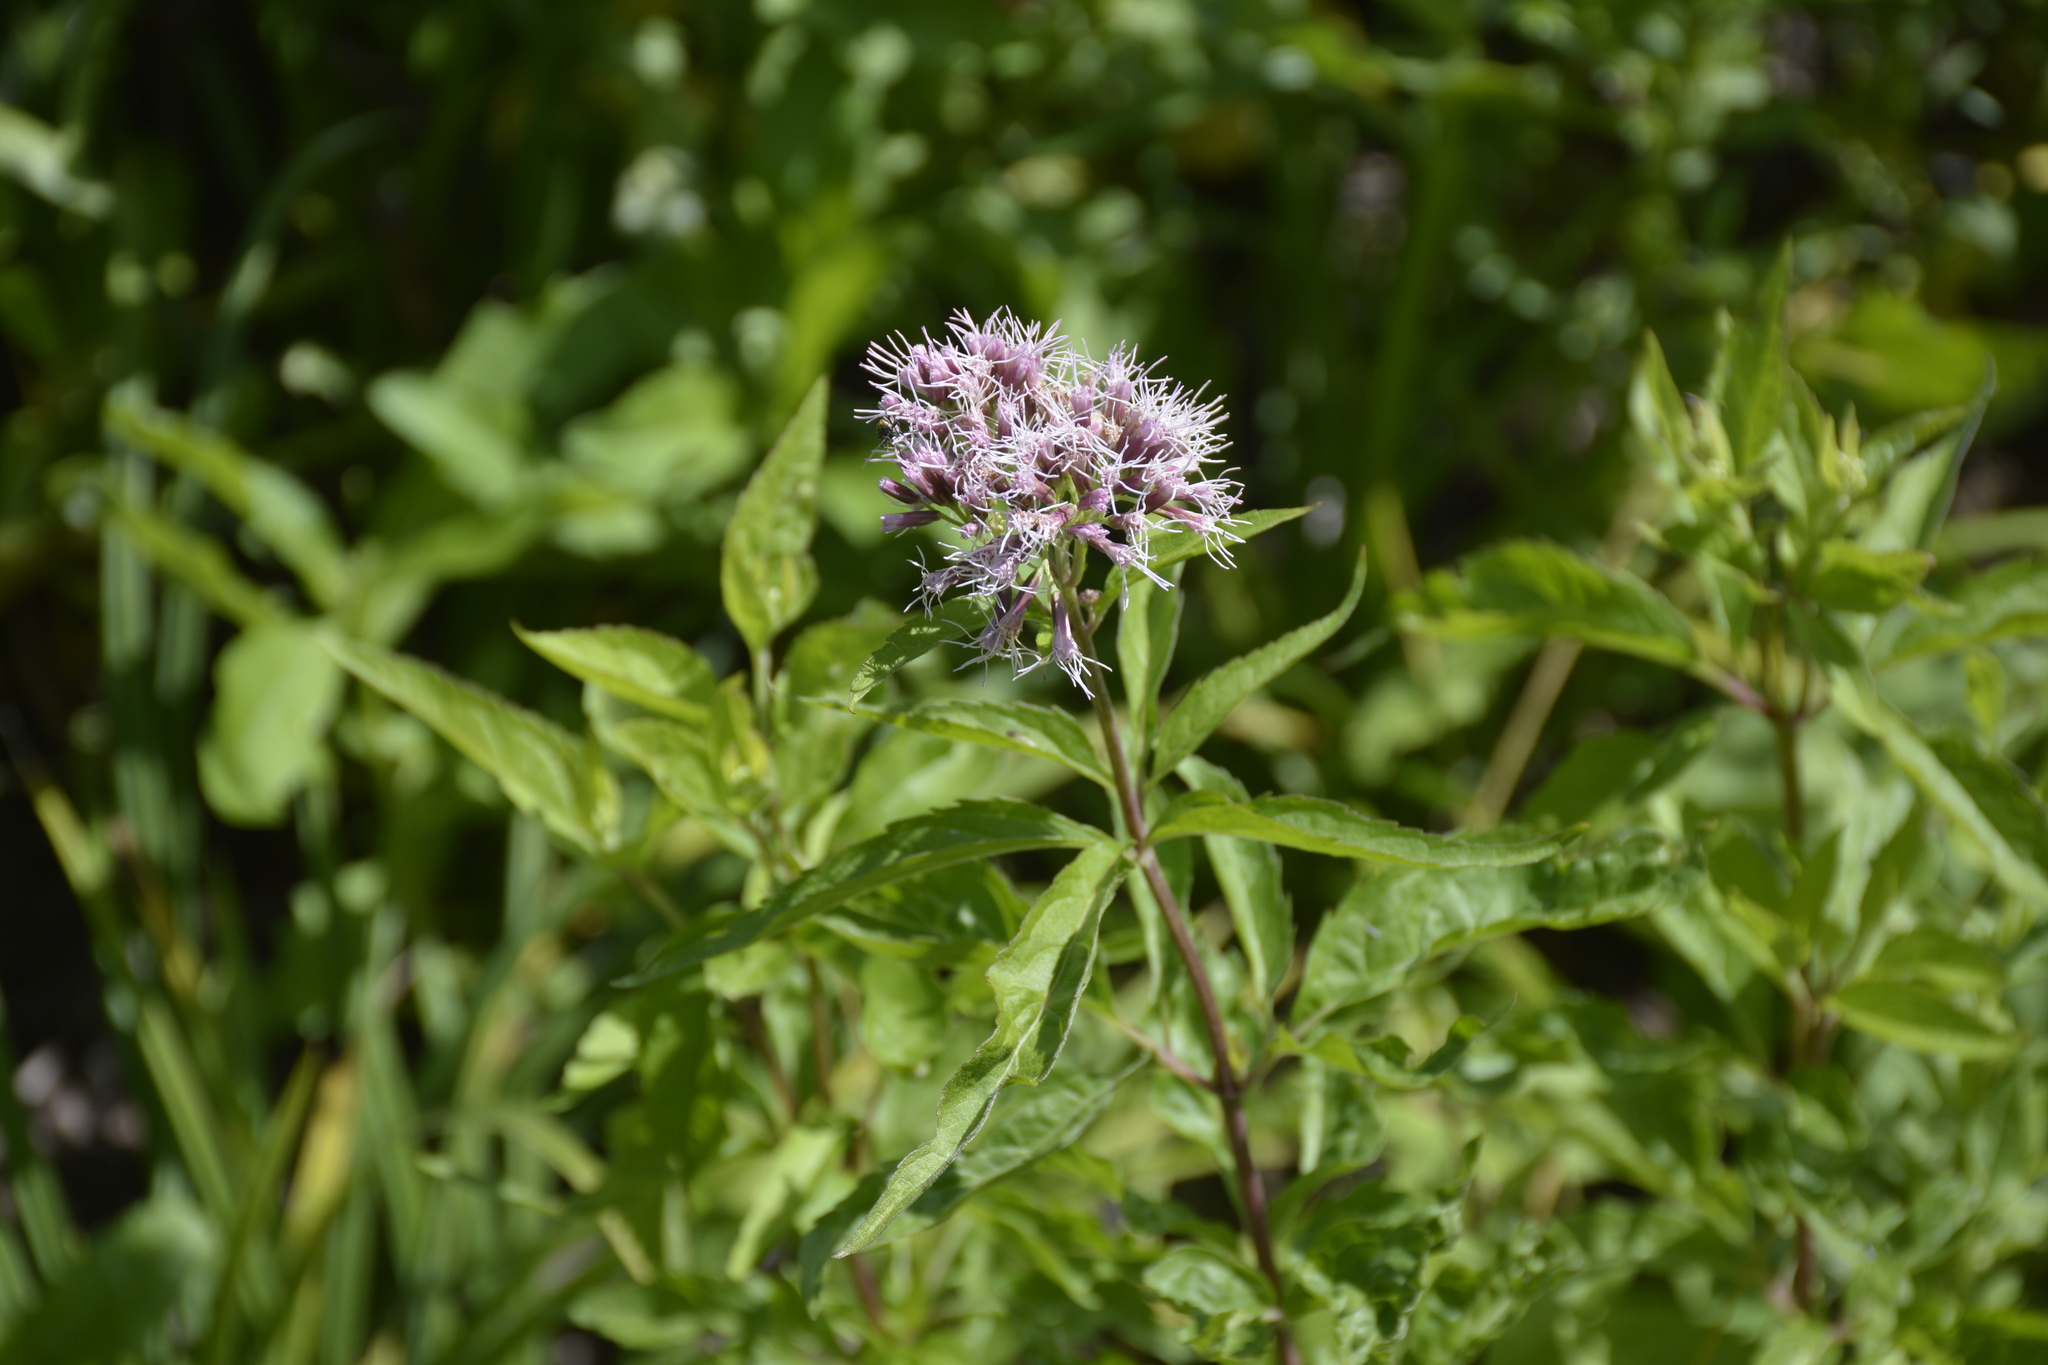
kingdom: Plantae
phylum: Tracheophyta
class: Magnoliopsida
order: Asterales
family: Asteraceae
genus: Eupatorium
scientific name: Eupatorium cannabinum
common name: Hemp-agrimony
